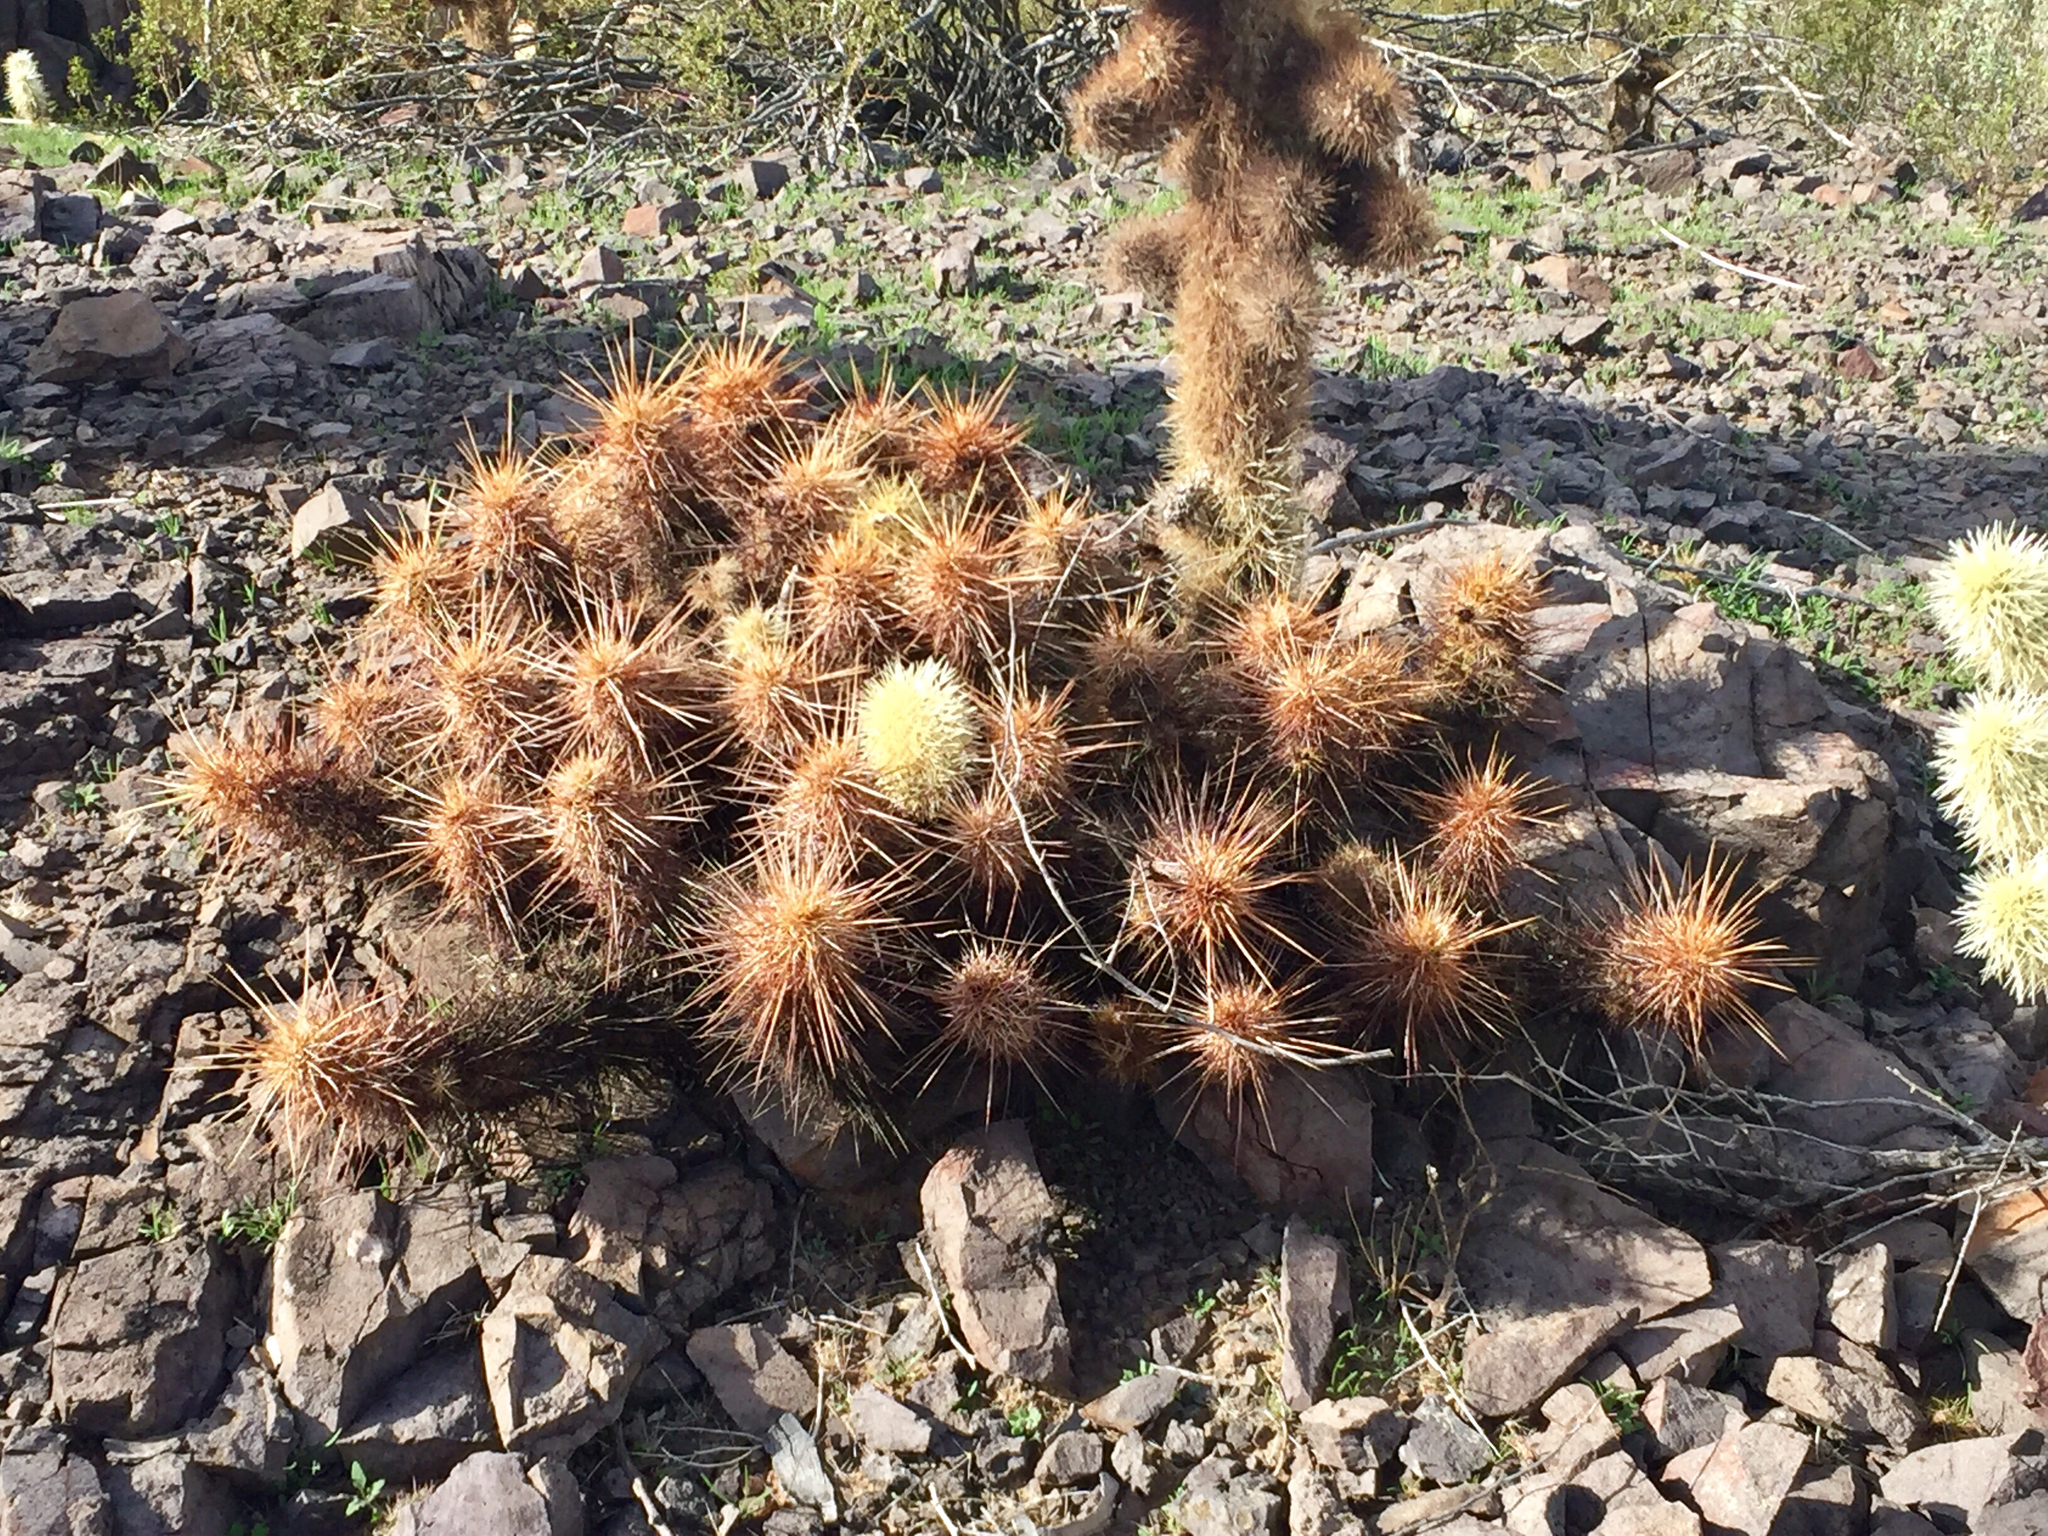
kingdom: Plantae
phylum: Tracheophyta
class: Magnoliopsida
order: Caryophyllales
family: Cactaceae
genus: Echinocereus
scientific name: Echinocereus engelmannii
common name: Engelmann's hedgehog cactus
